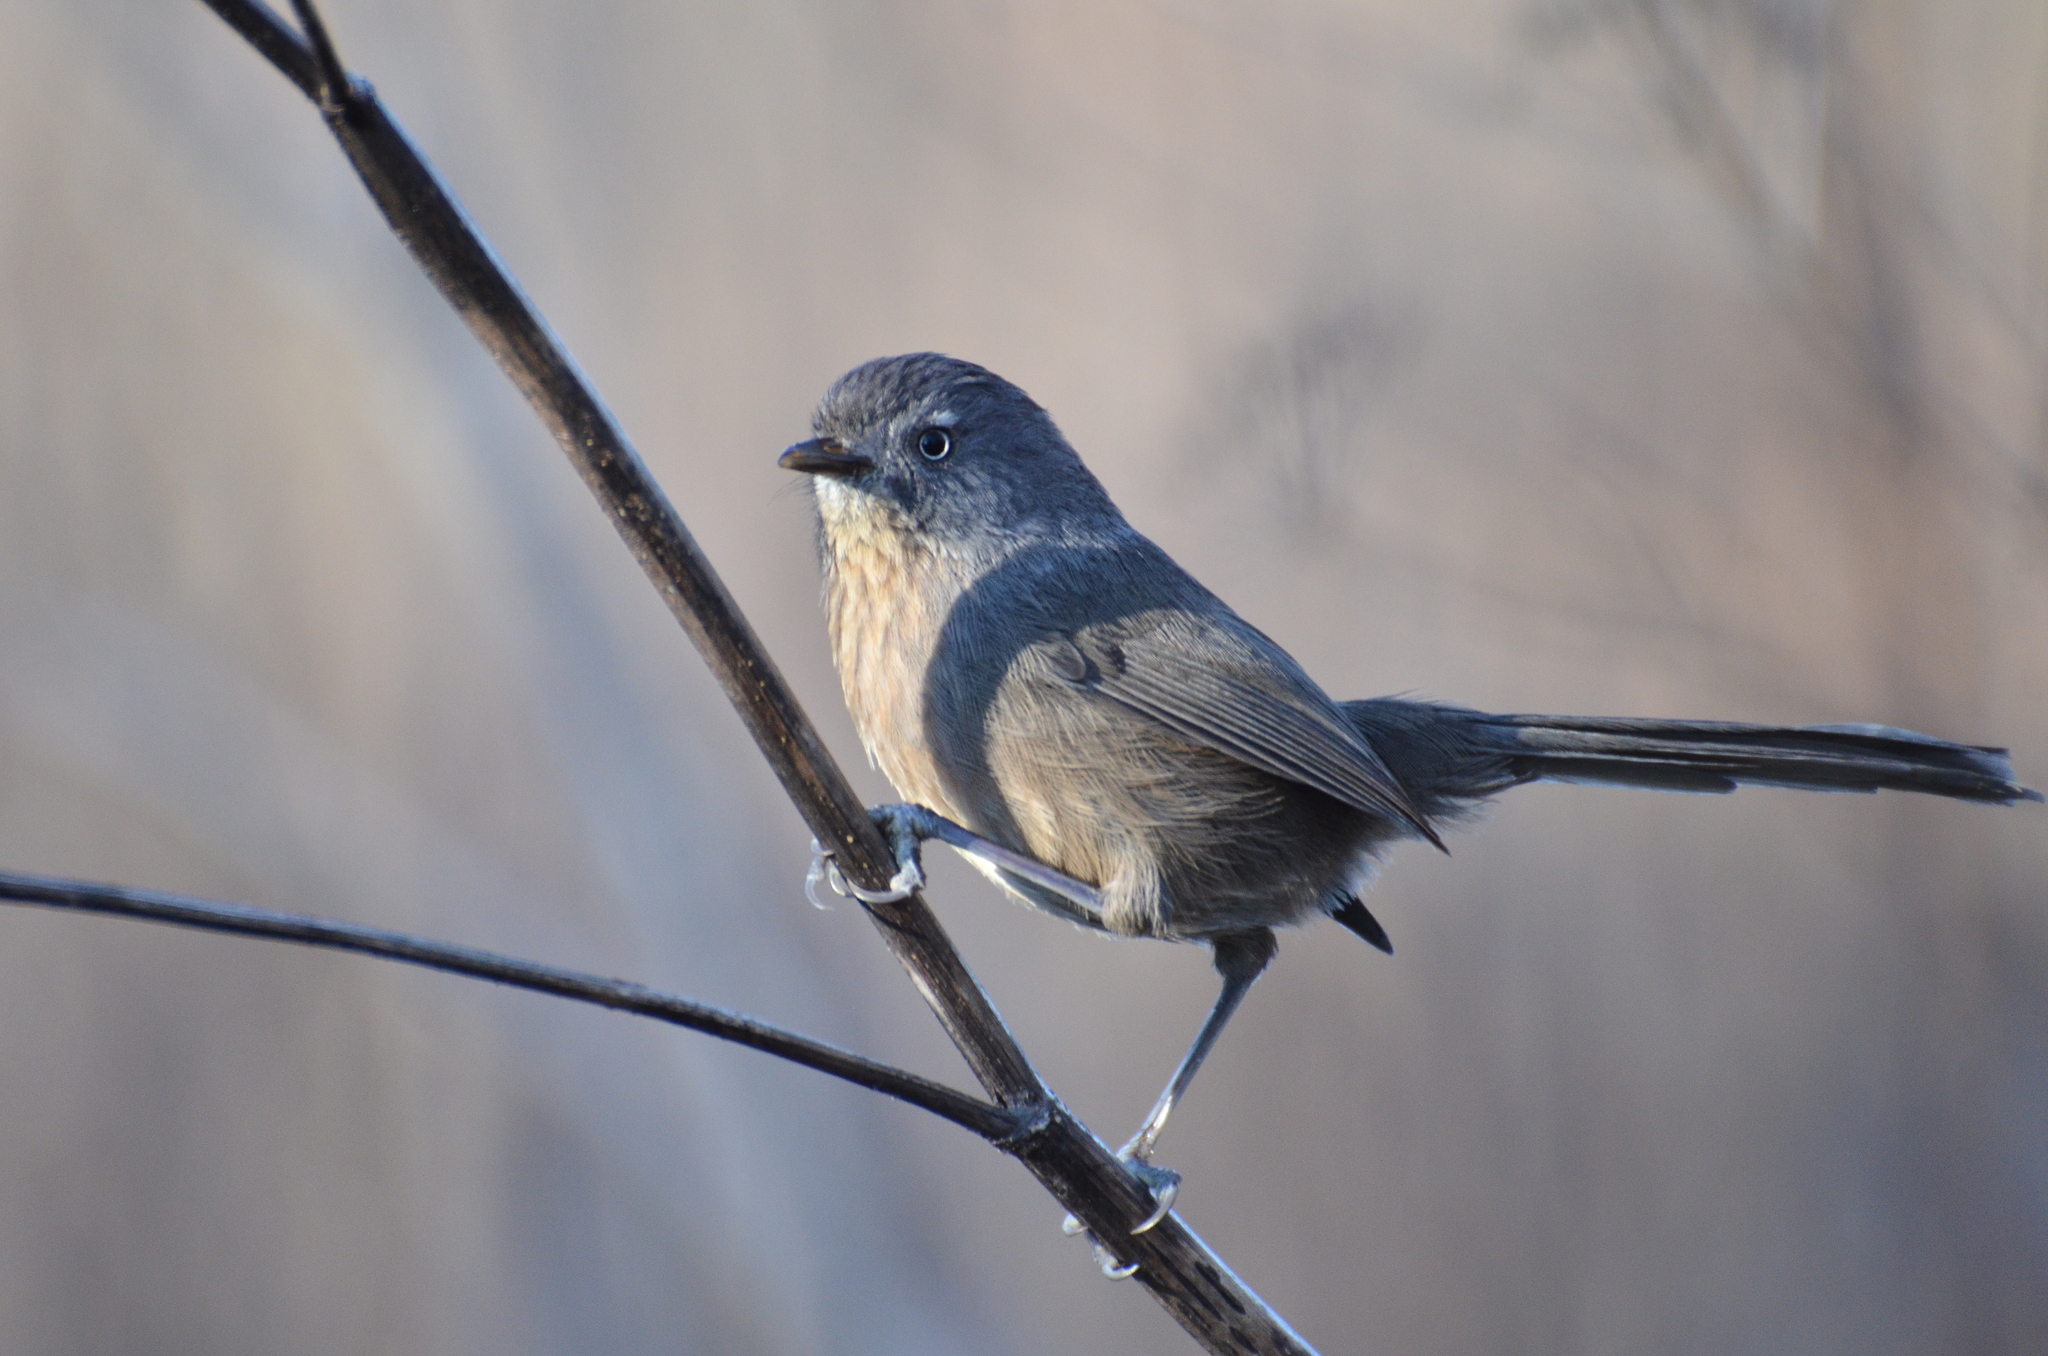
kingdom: Animalia
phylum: Chordata
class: Aves
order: Passeriformes
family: Sylviidae
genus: Chamaea
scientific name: Chamaea fasciata
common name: Wrentit
